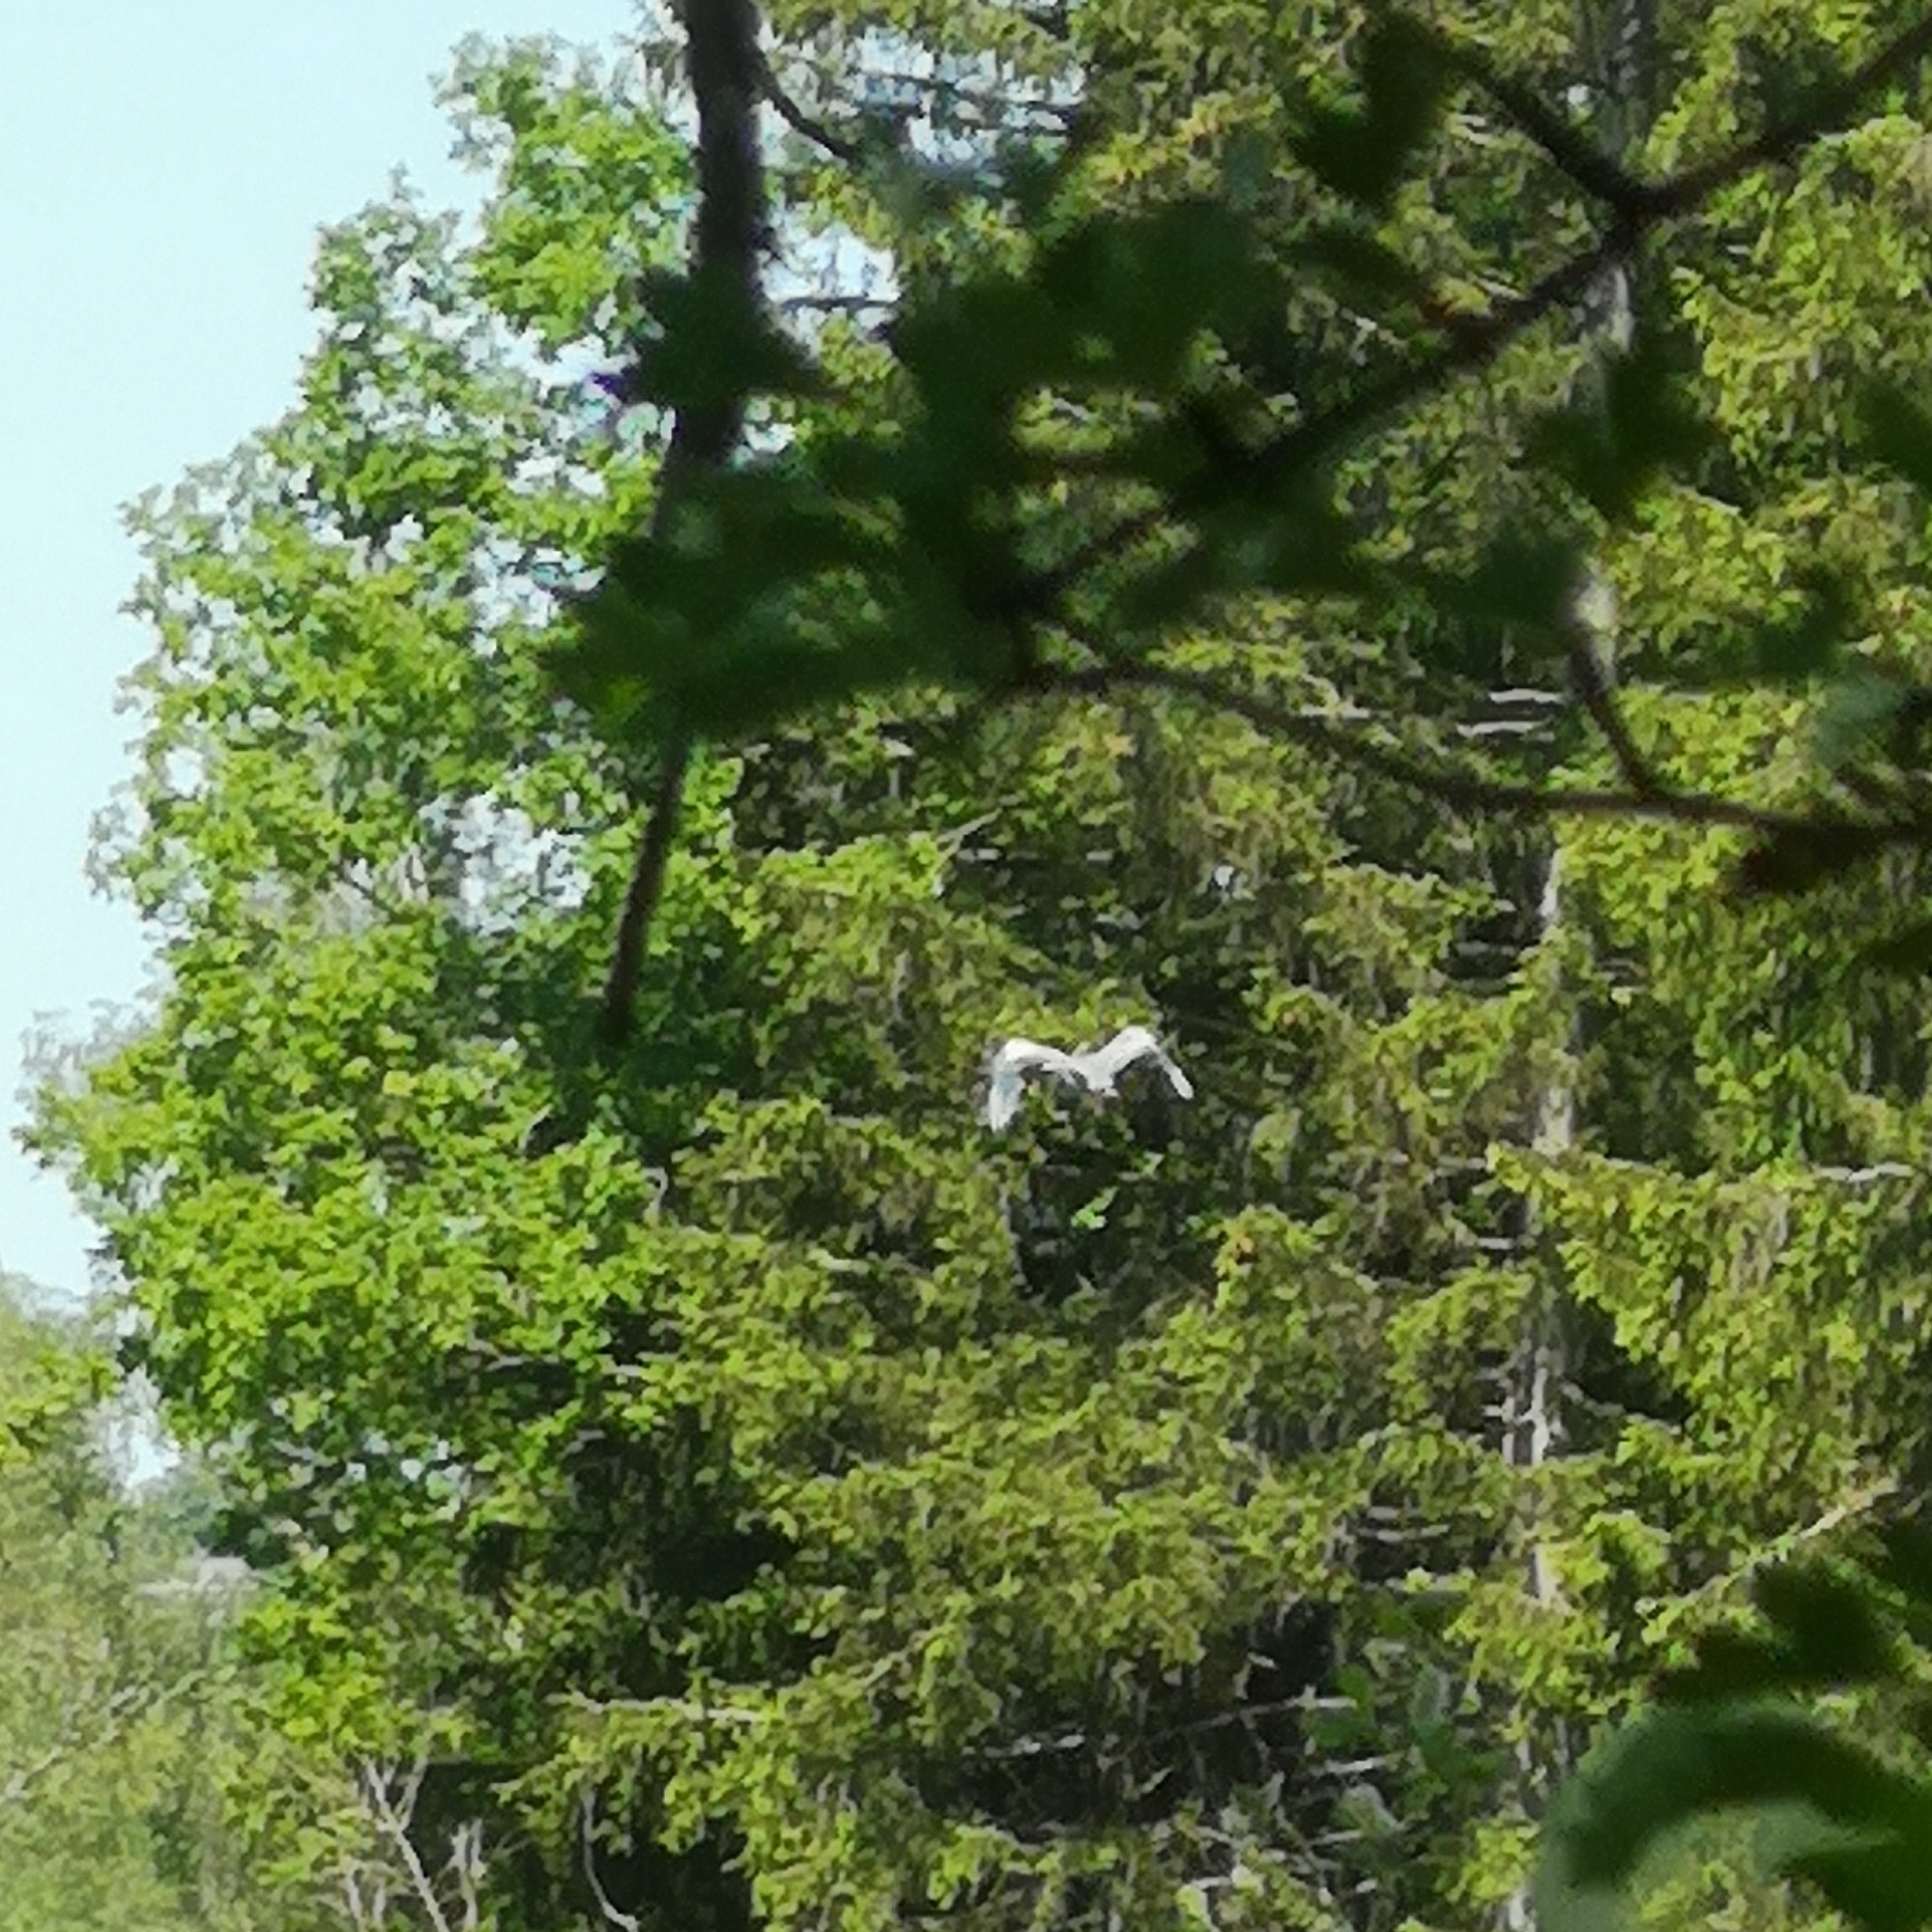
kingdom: Animalia
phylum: Chordata
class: Aves
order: Pelecaniformes
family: Ardeidae
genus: Ardea
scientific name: Ardea cinerea
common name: Grey heron
